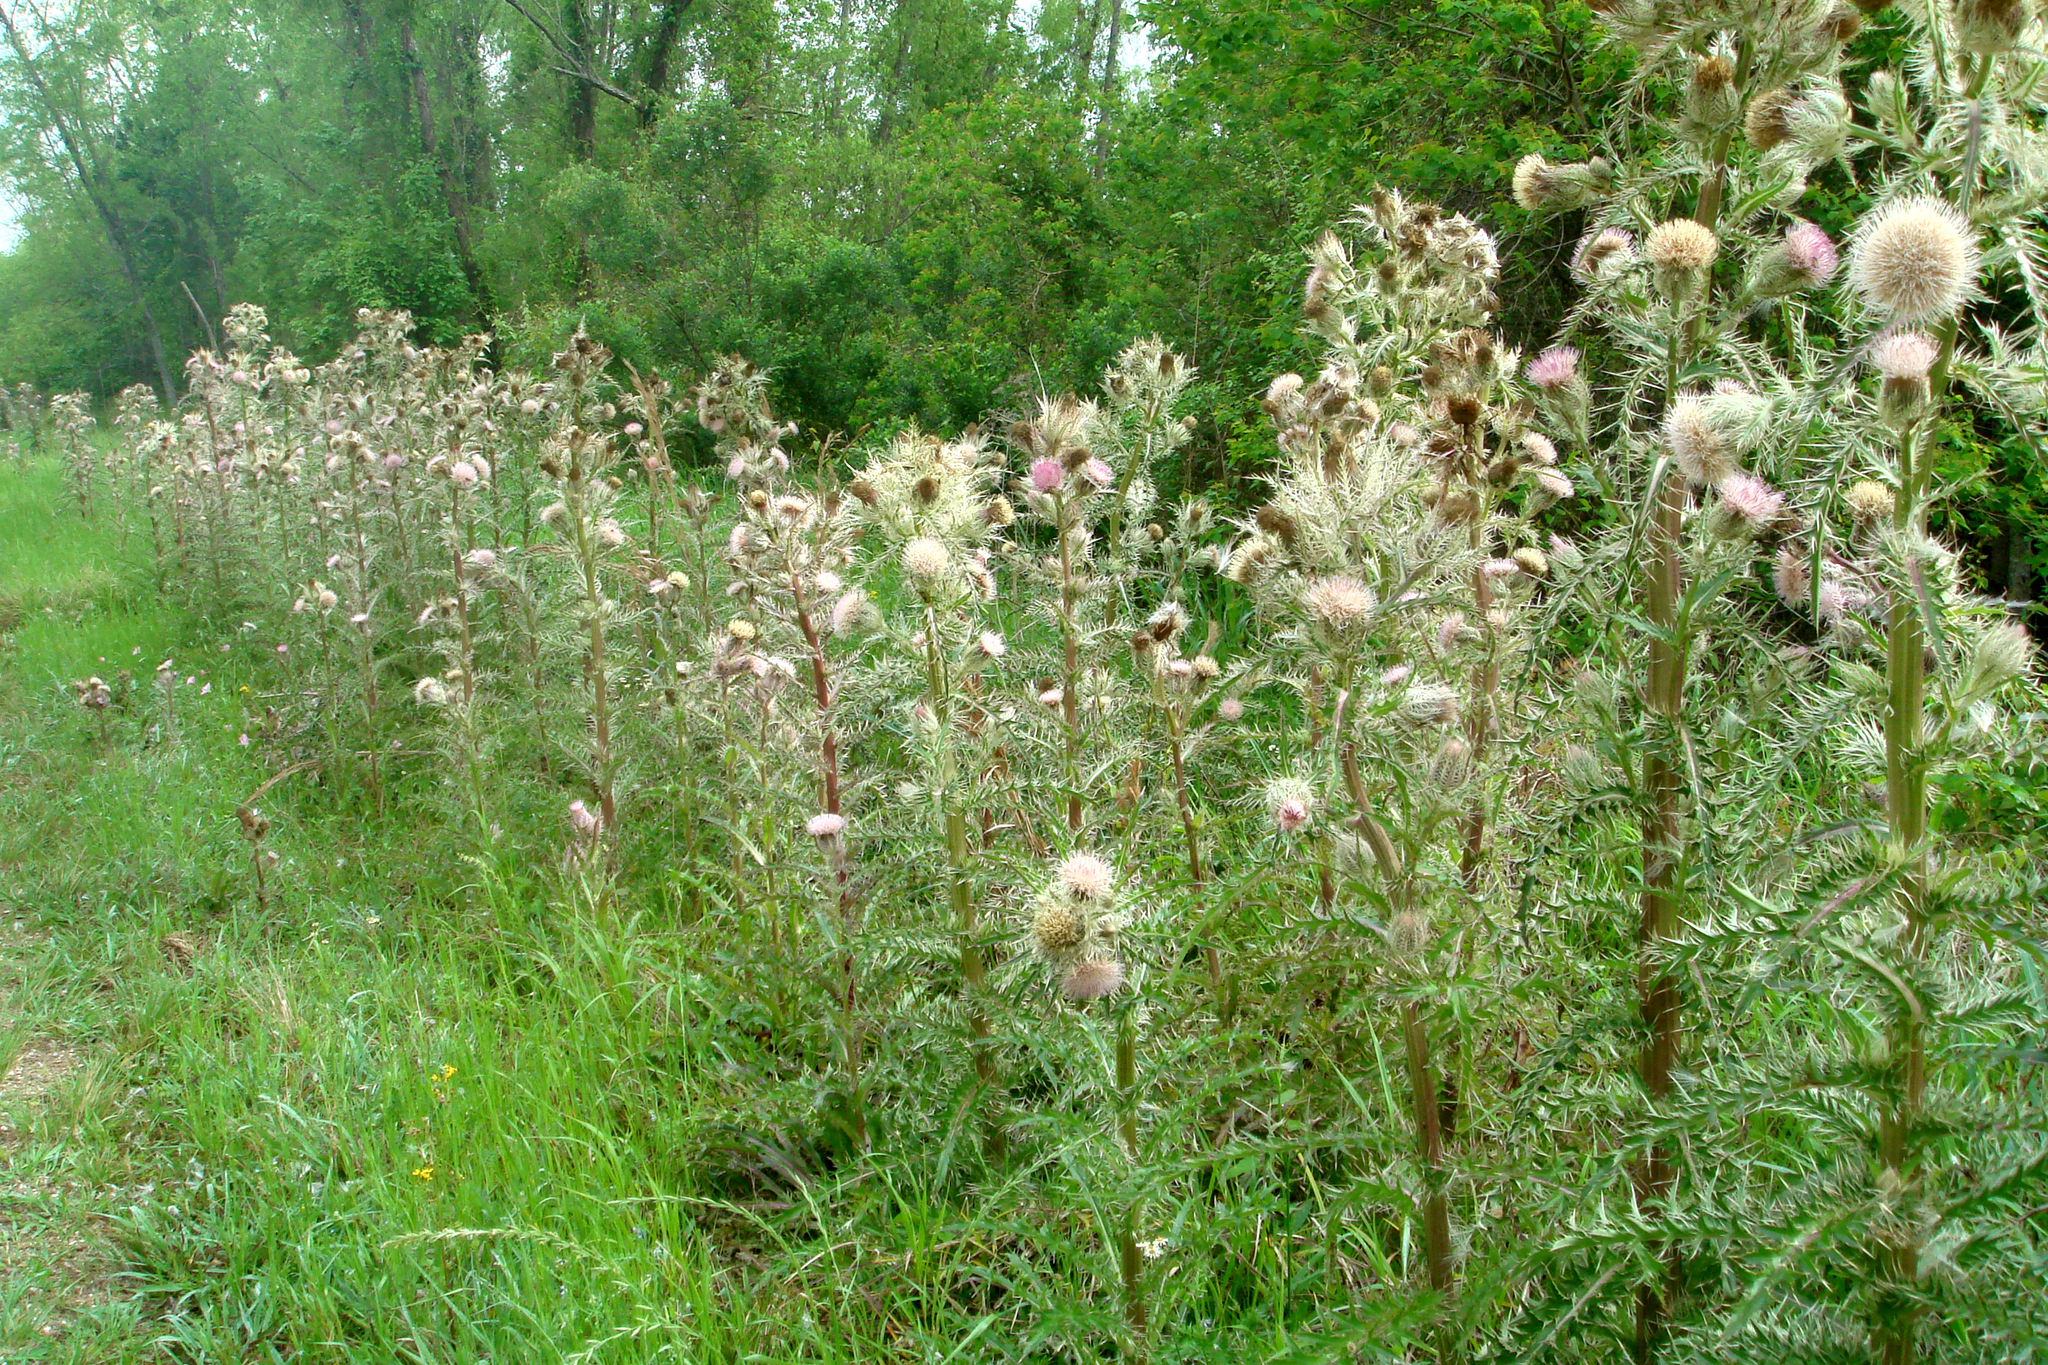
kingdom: Plantae
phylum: Tracheophyta
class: Magnoliopsida
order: Asterales
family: Asteraceae
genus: Cirsium
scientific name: Cirsium horridulum
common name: Bristly thistle
